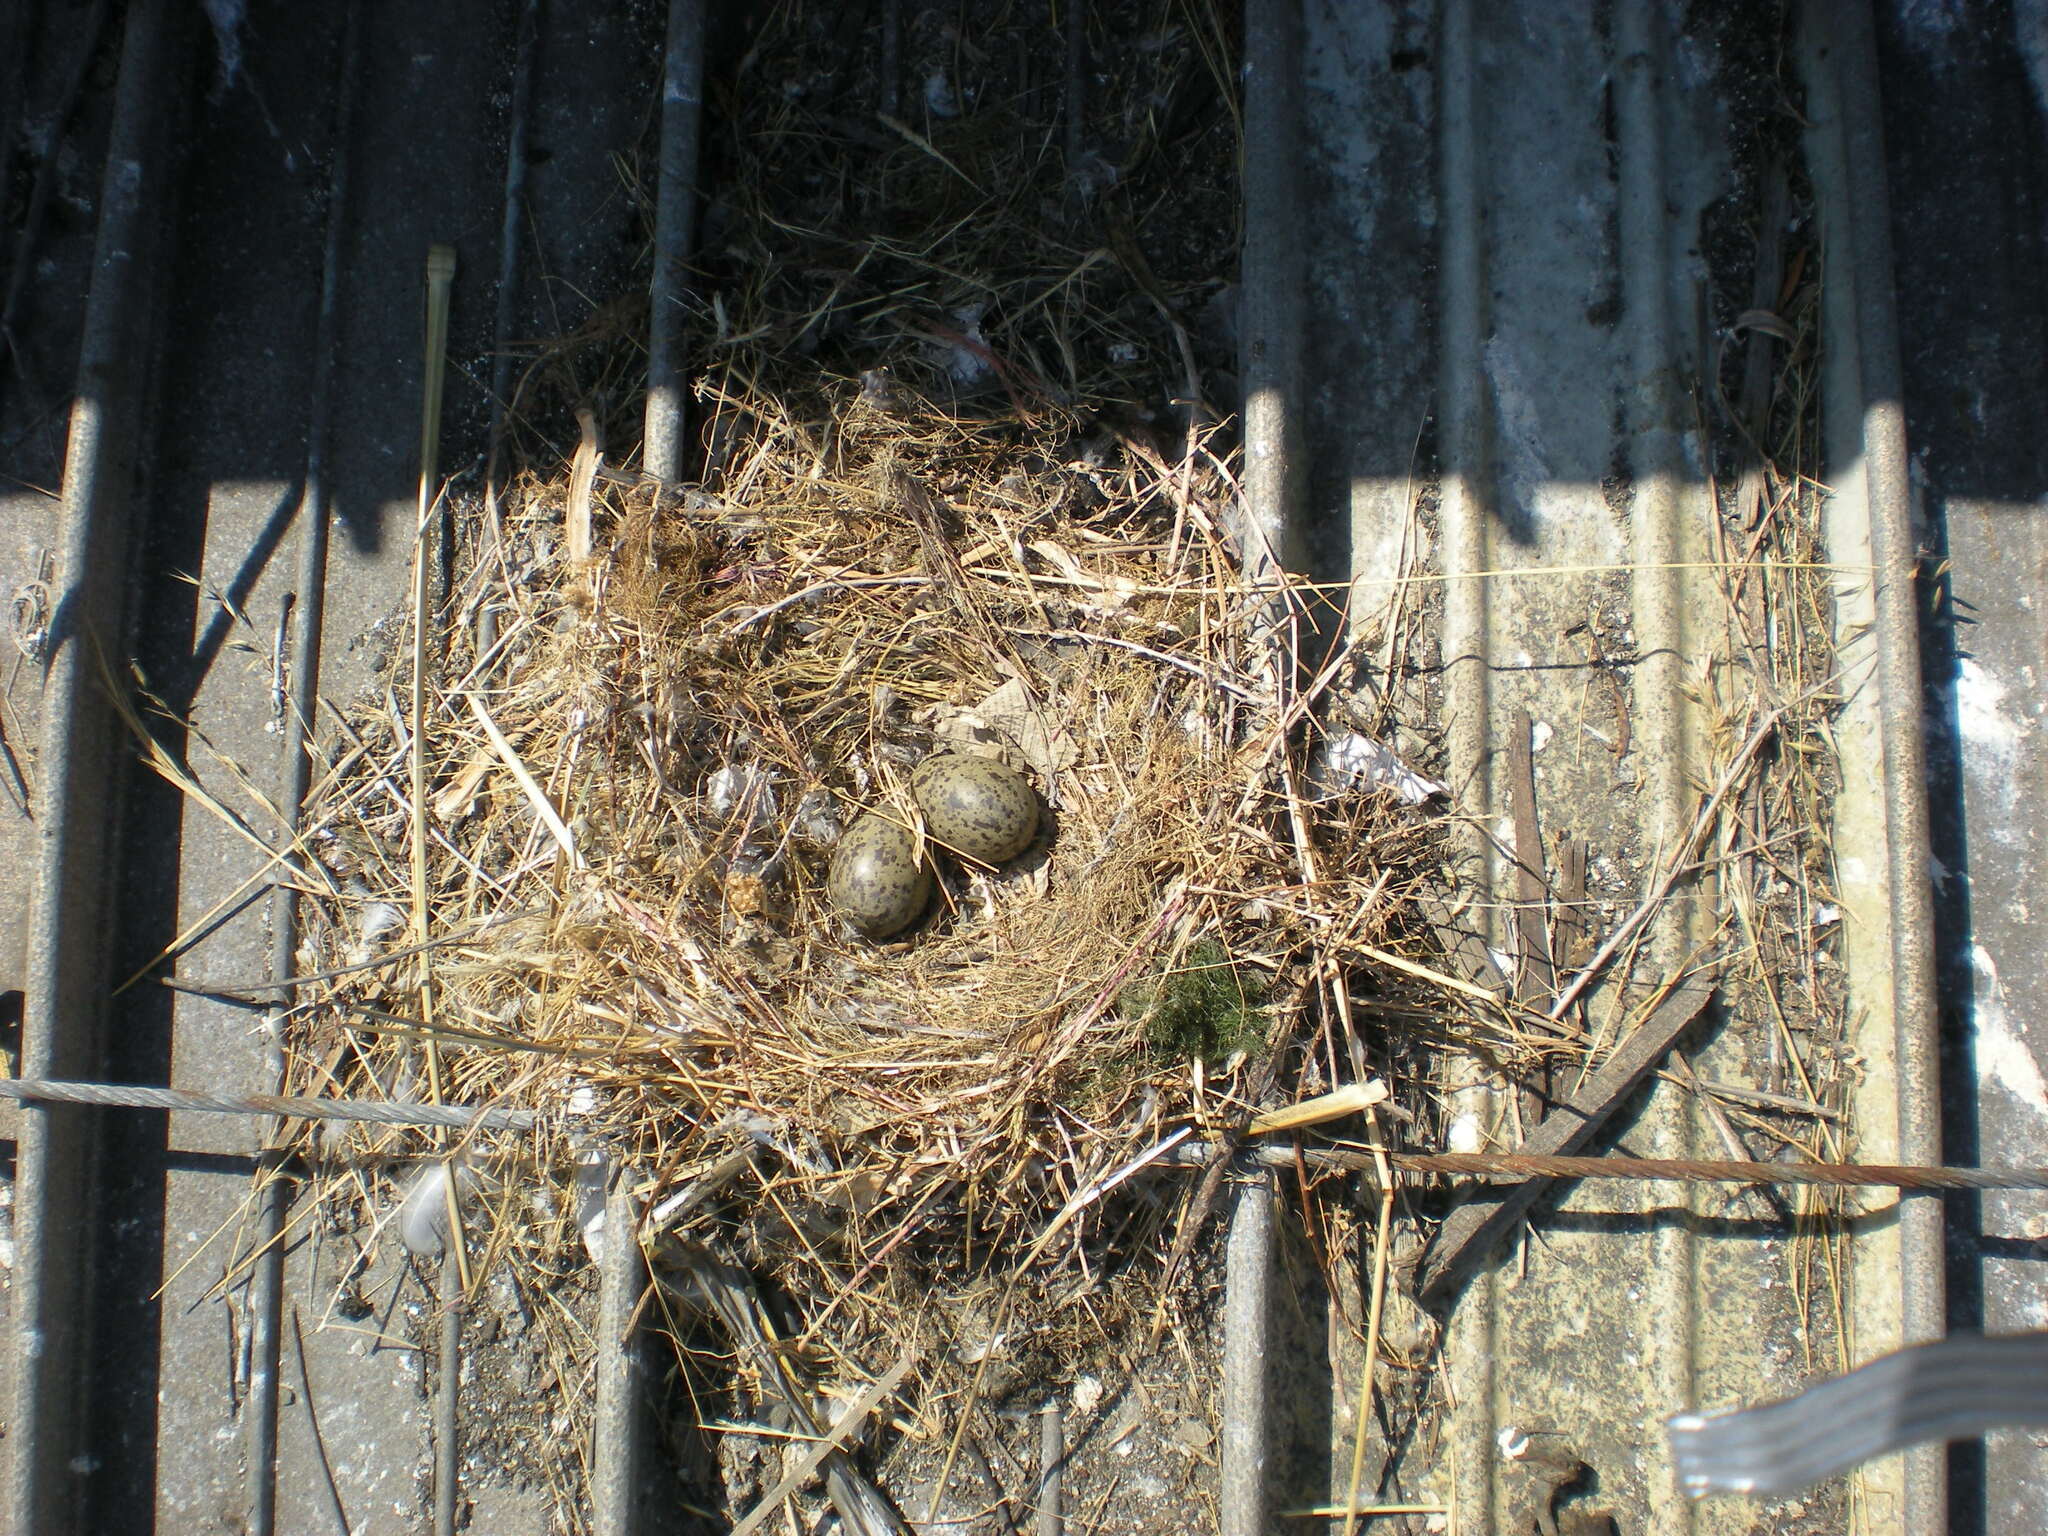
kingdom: Animalia
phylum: Chordata
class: Aves
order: Charadriiformes
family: Laridae
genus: Larus
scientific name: Larus occidentalis
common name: Western gull
